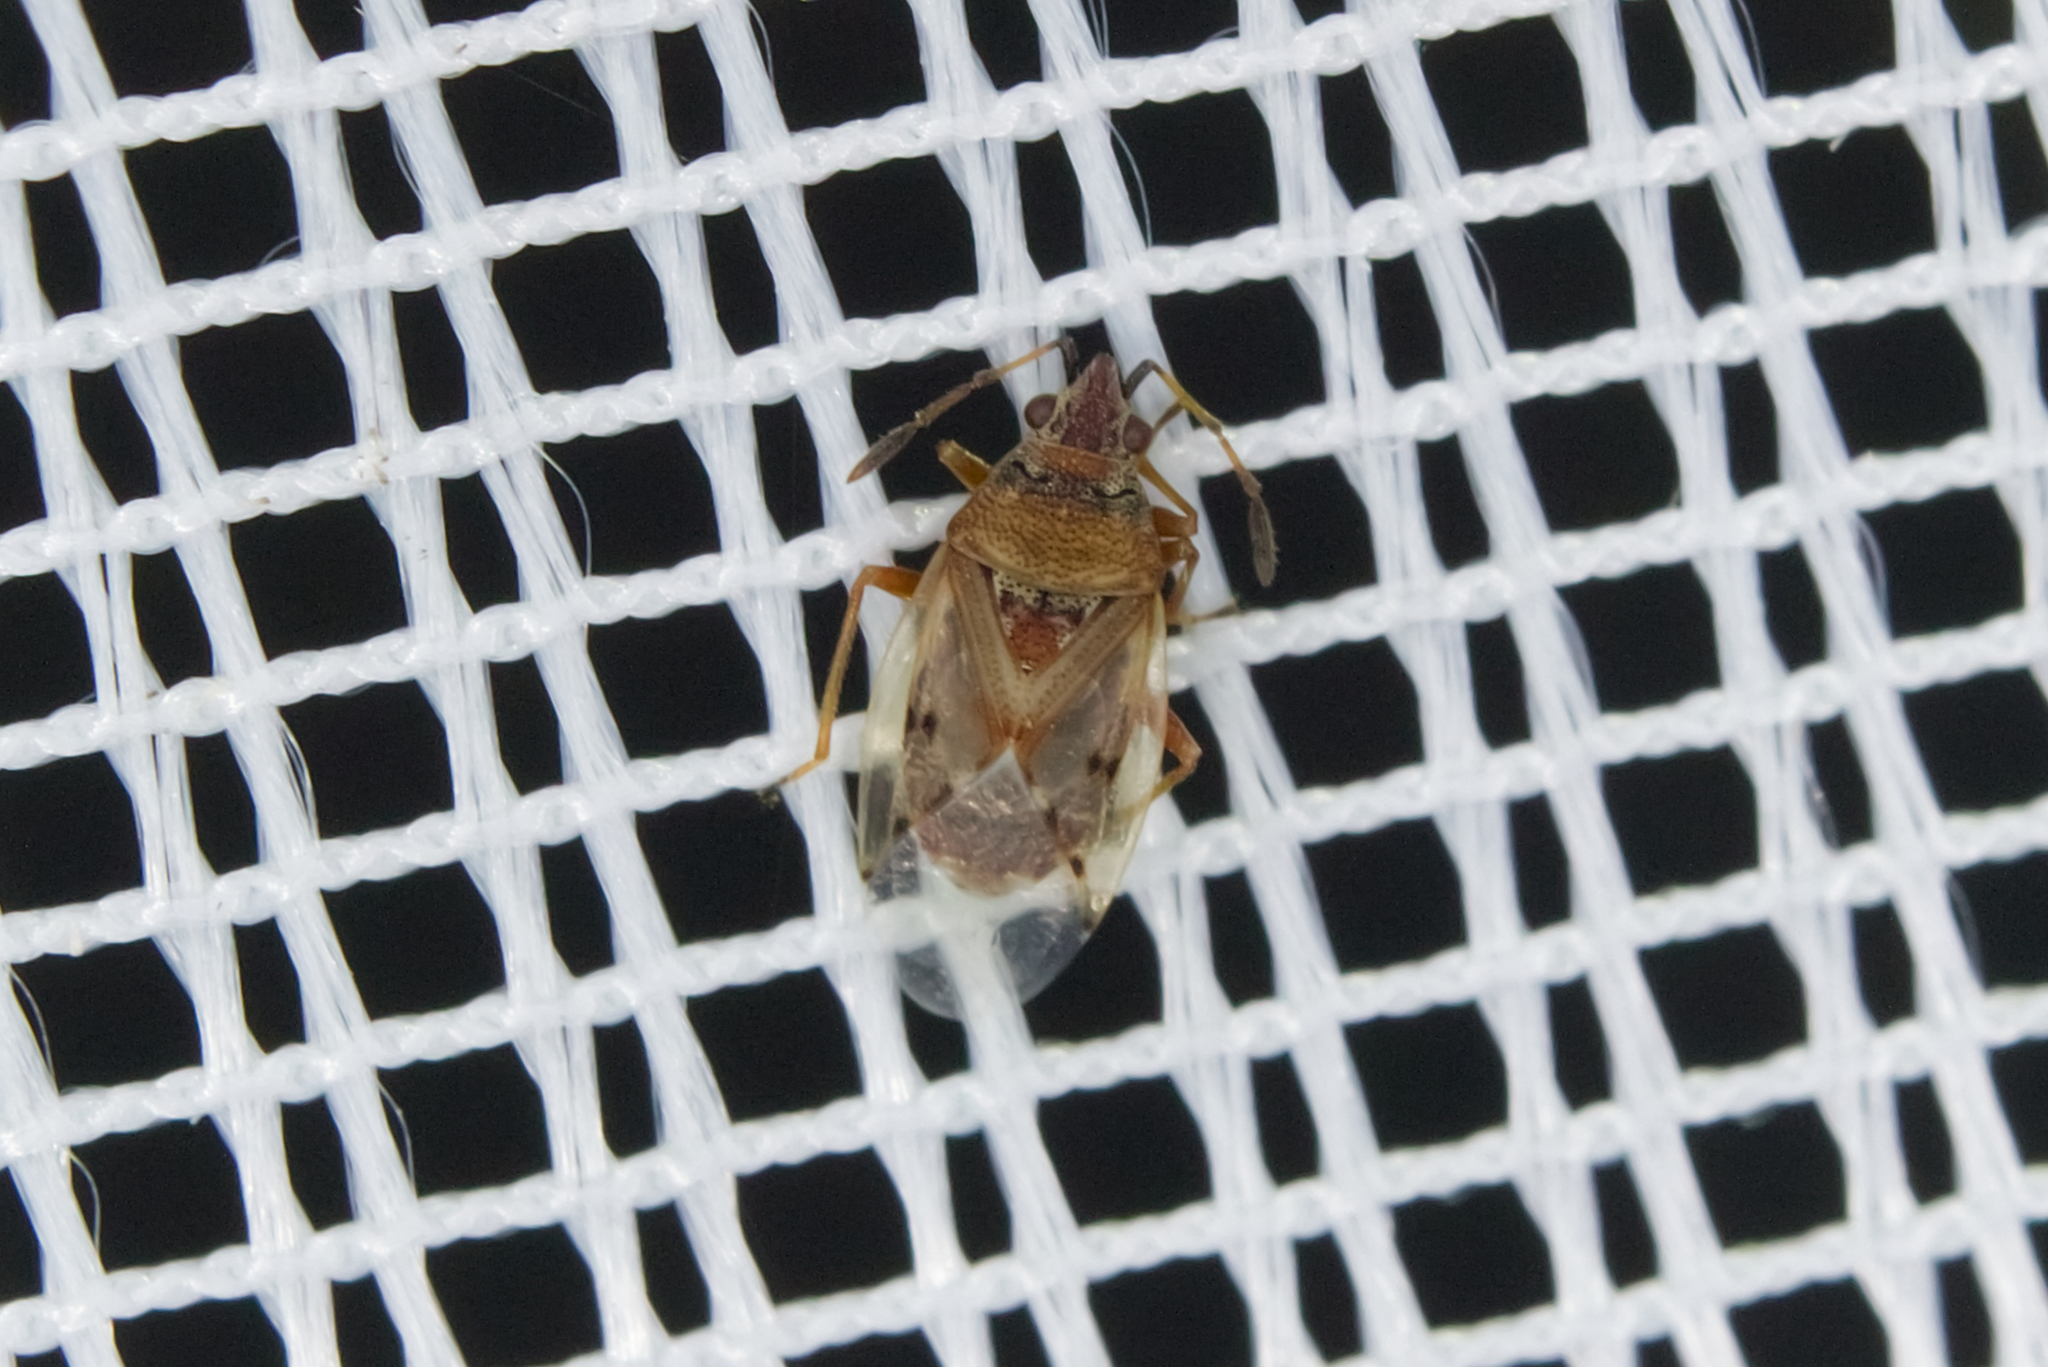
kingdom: Animalia
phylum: Arthropoda
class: Insecta
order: Hemiptera
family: Lygaeidae
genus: Kleidocerys
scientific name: Kleidocerys resedae
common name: Birch catkin bug
